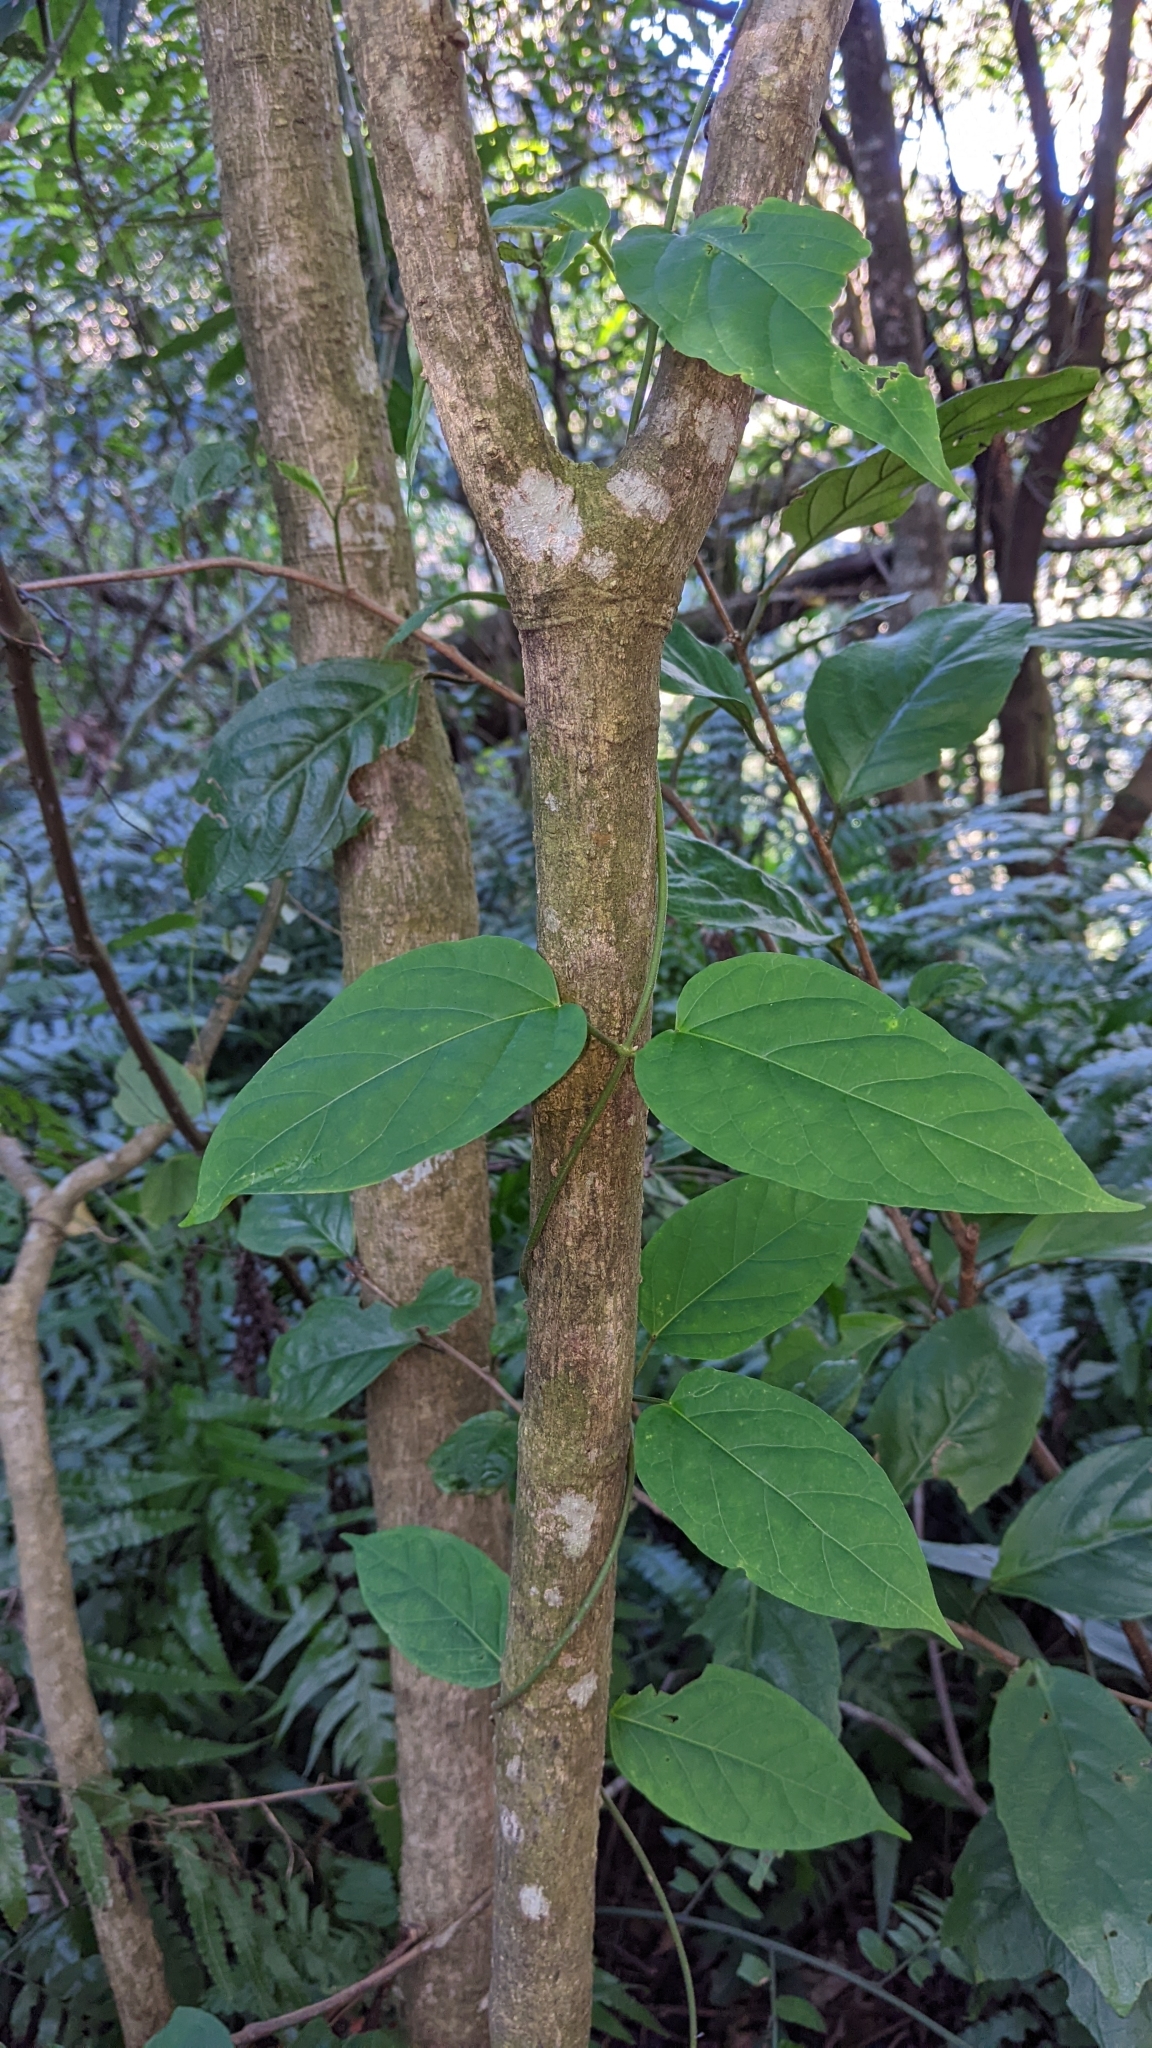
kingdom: Plantae
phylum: Tracheophyta
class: Magnoliopsida
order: Gentianales
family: Apocynaceae
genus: Jasminanthes
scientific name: Jasminanthes mucronata
